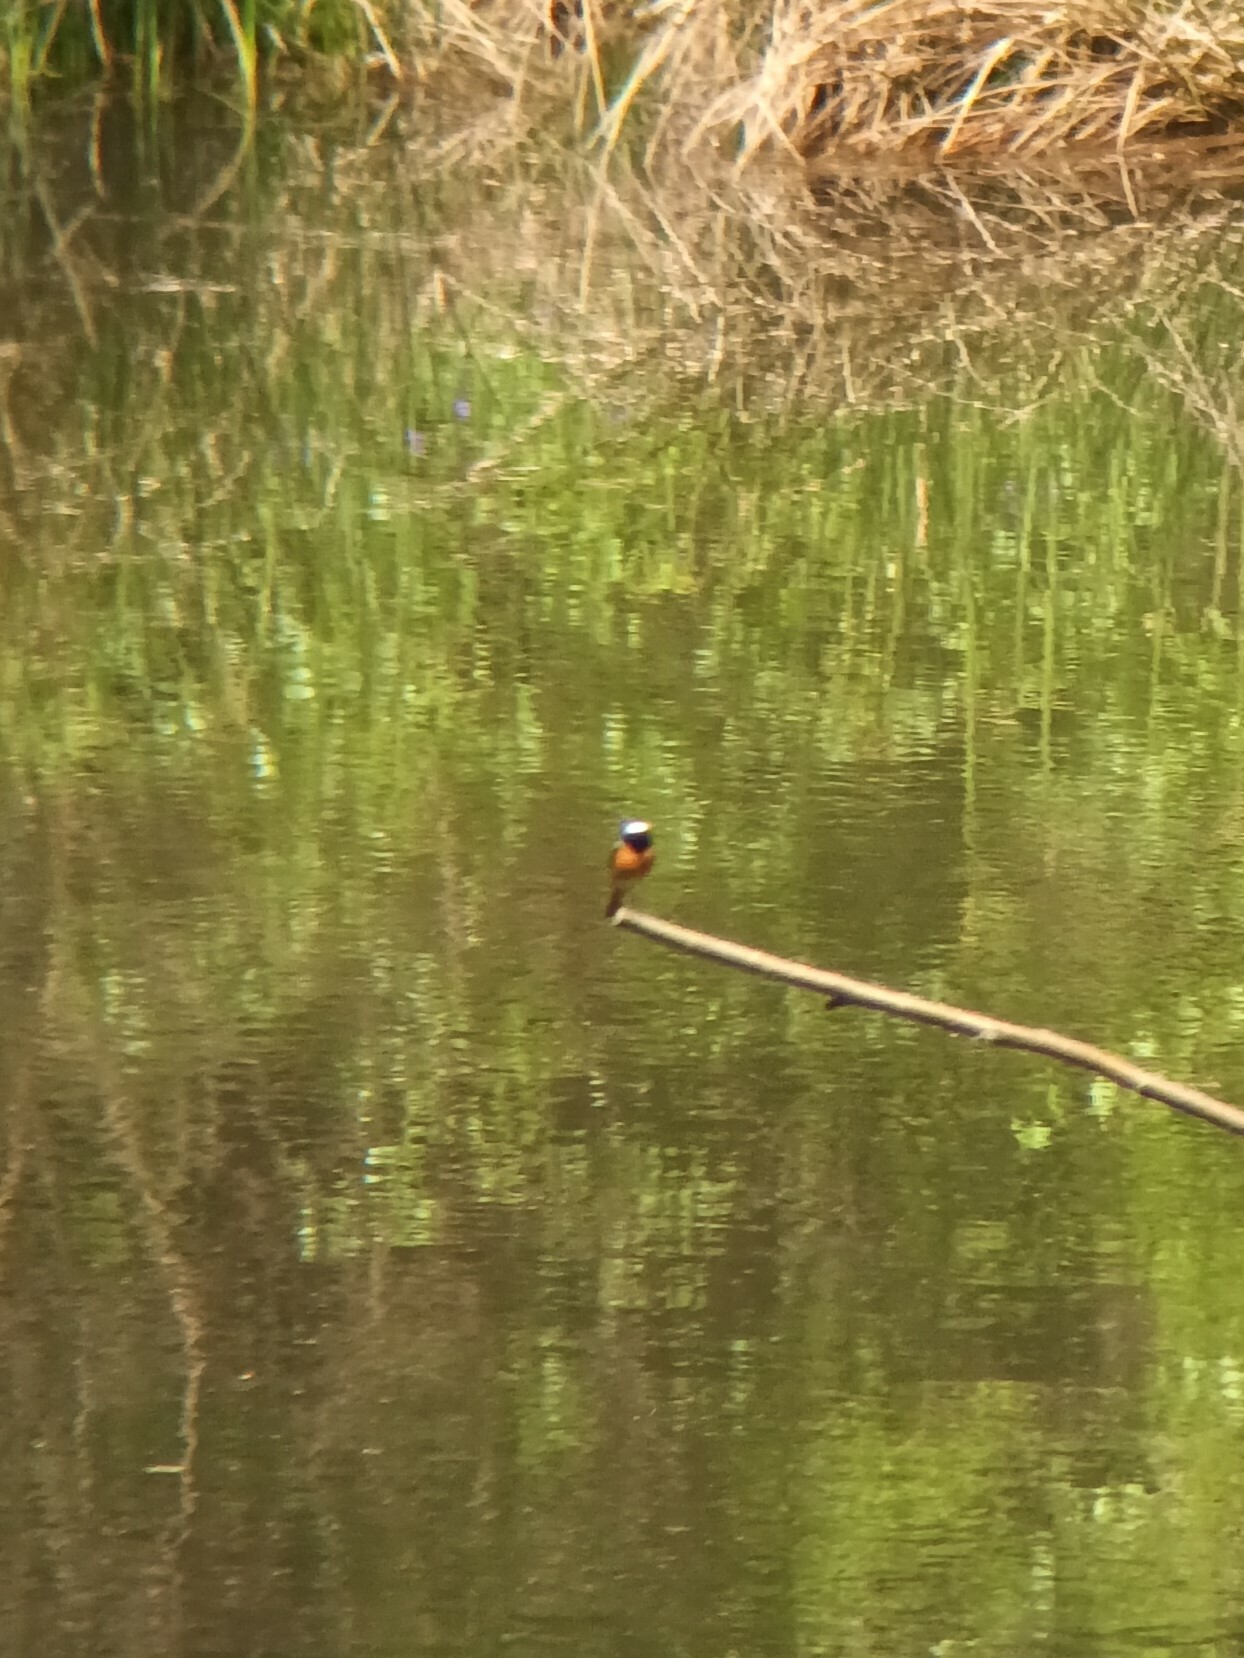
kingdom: Animalia
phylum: Chordata
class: Aves
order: Passeriformes
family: Muscicapidae
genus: Phoenicurus
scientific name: Phoenicurus phoenicurus
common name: Common redstart
